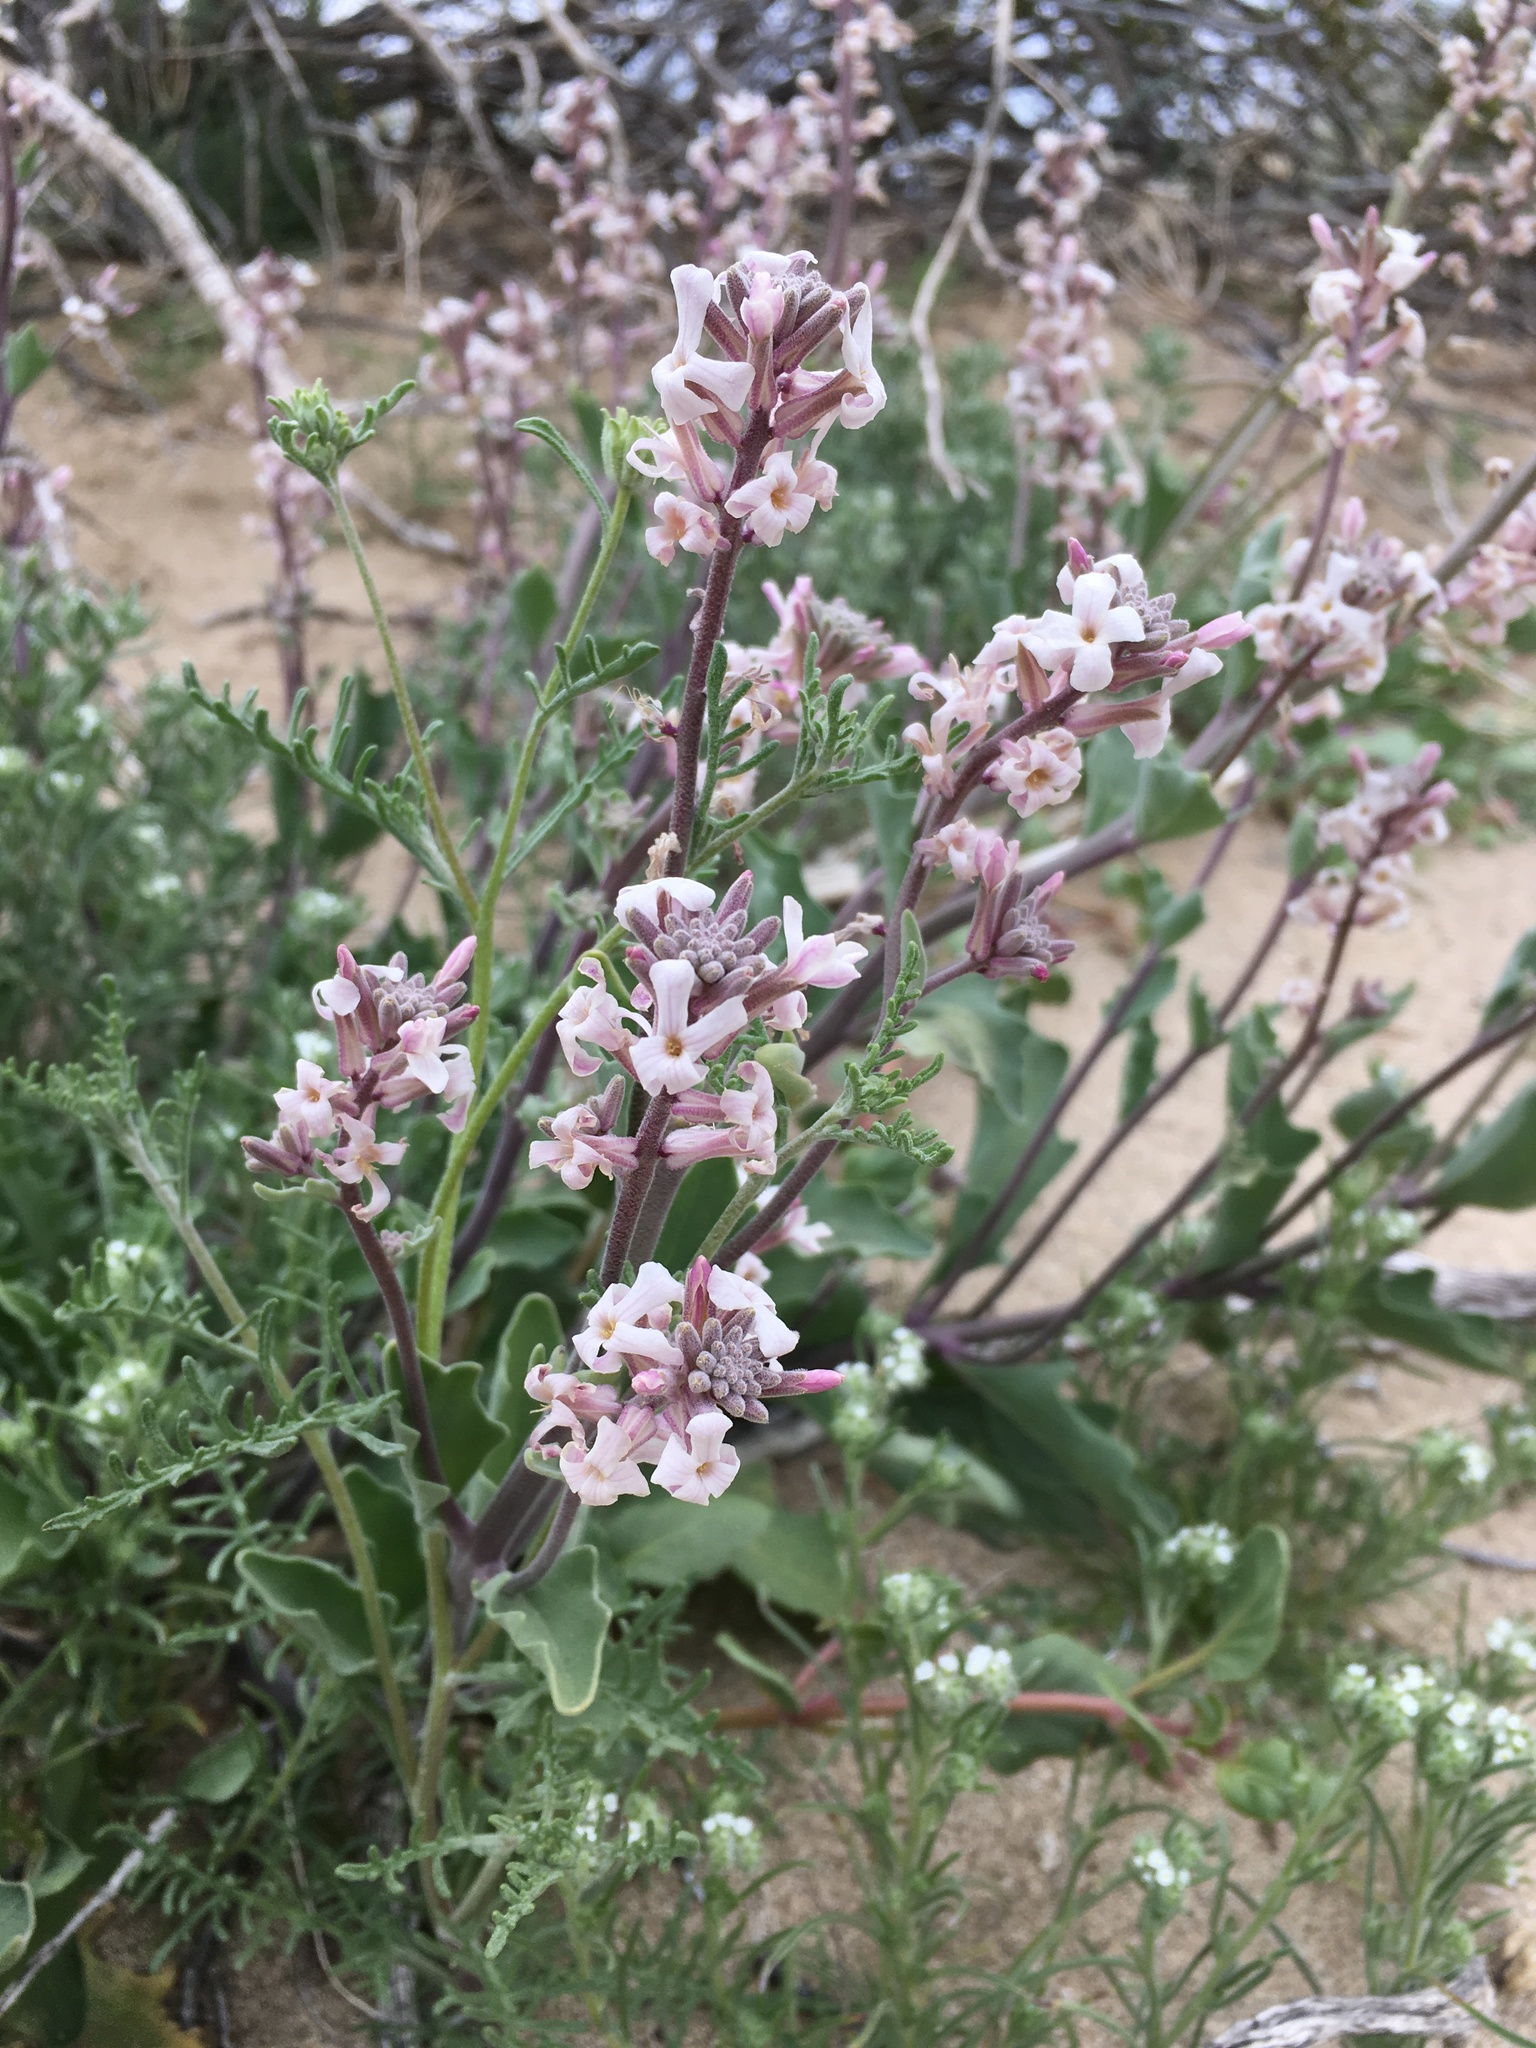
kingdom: Plantae
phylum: Tracheophyta
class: Magnoliopsida
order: Brassicales
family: Brassicaceae
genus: Dithyrea
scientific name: Dithyrea californica
